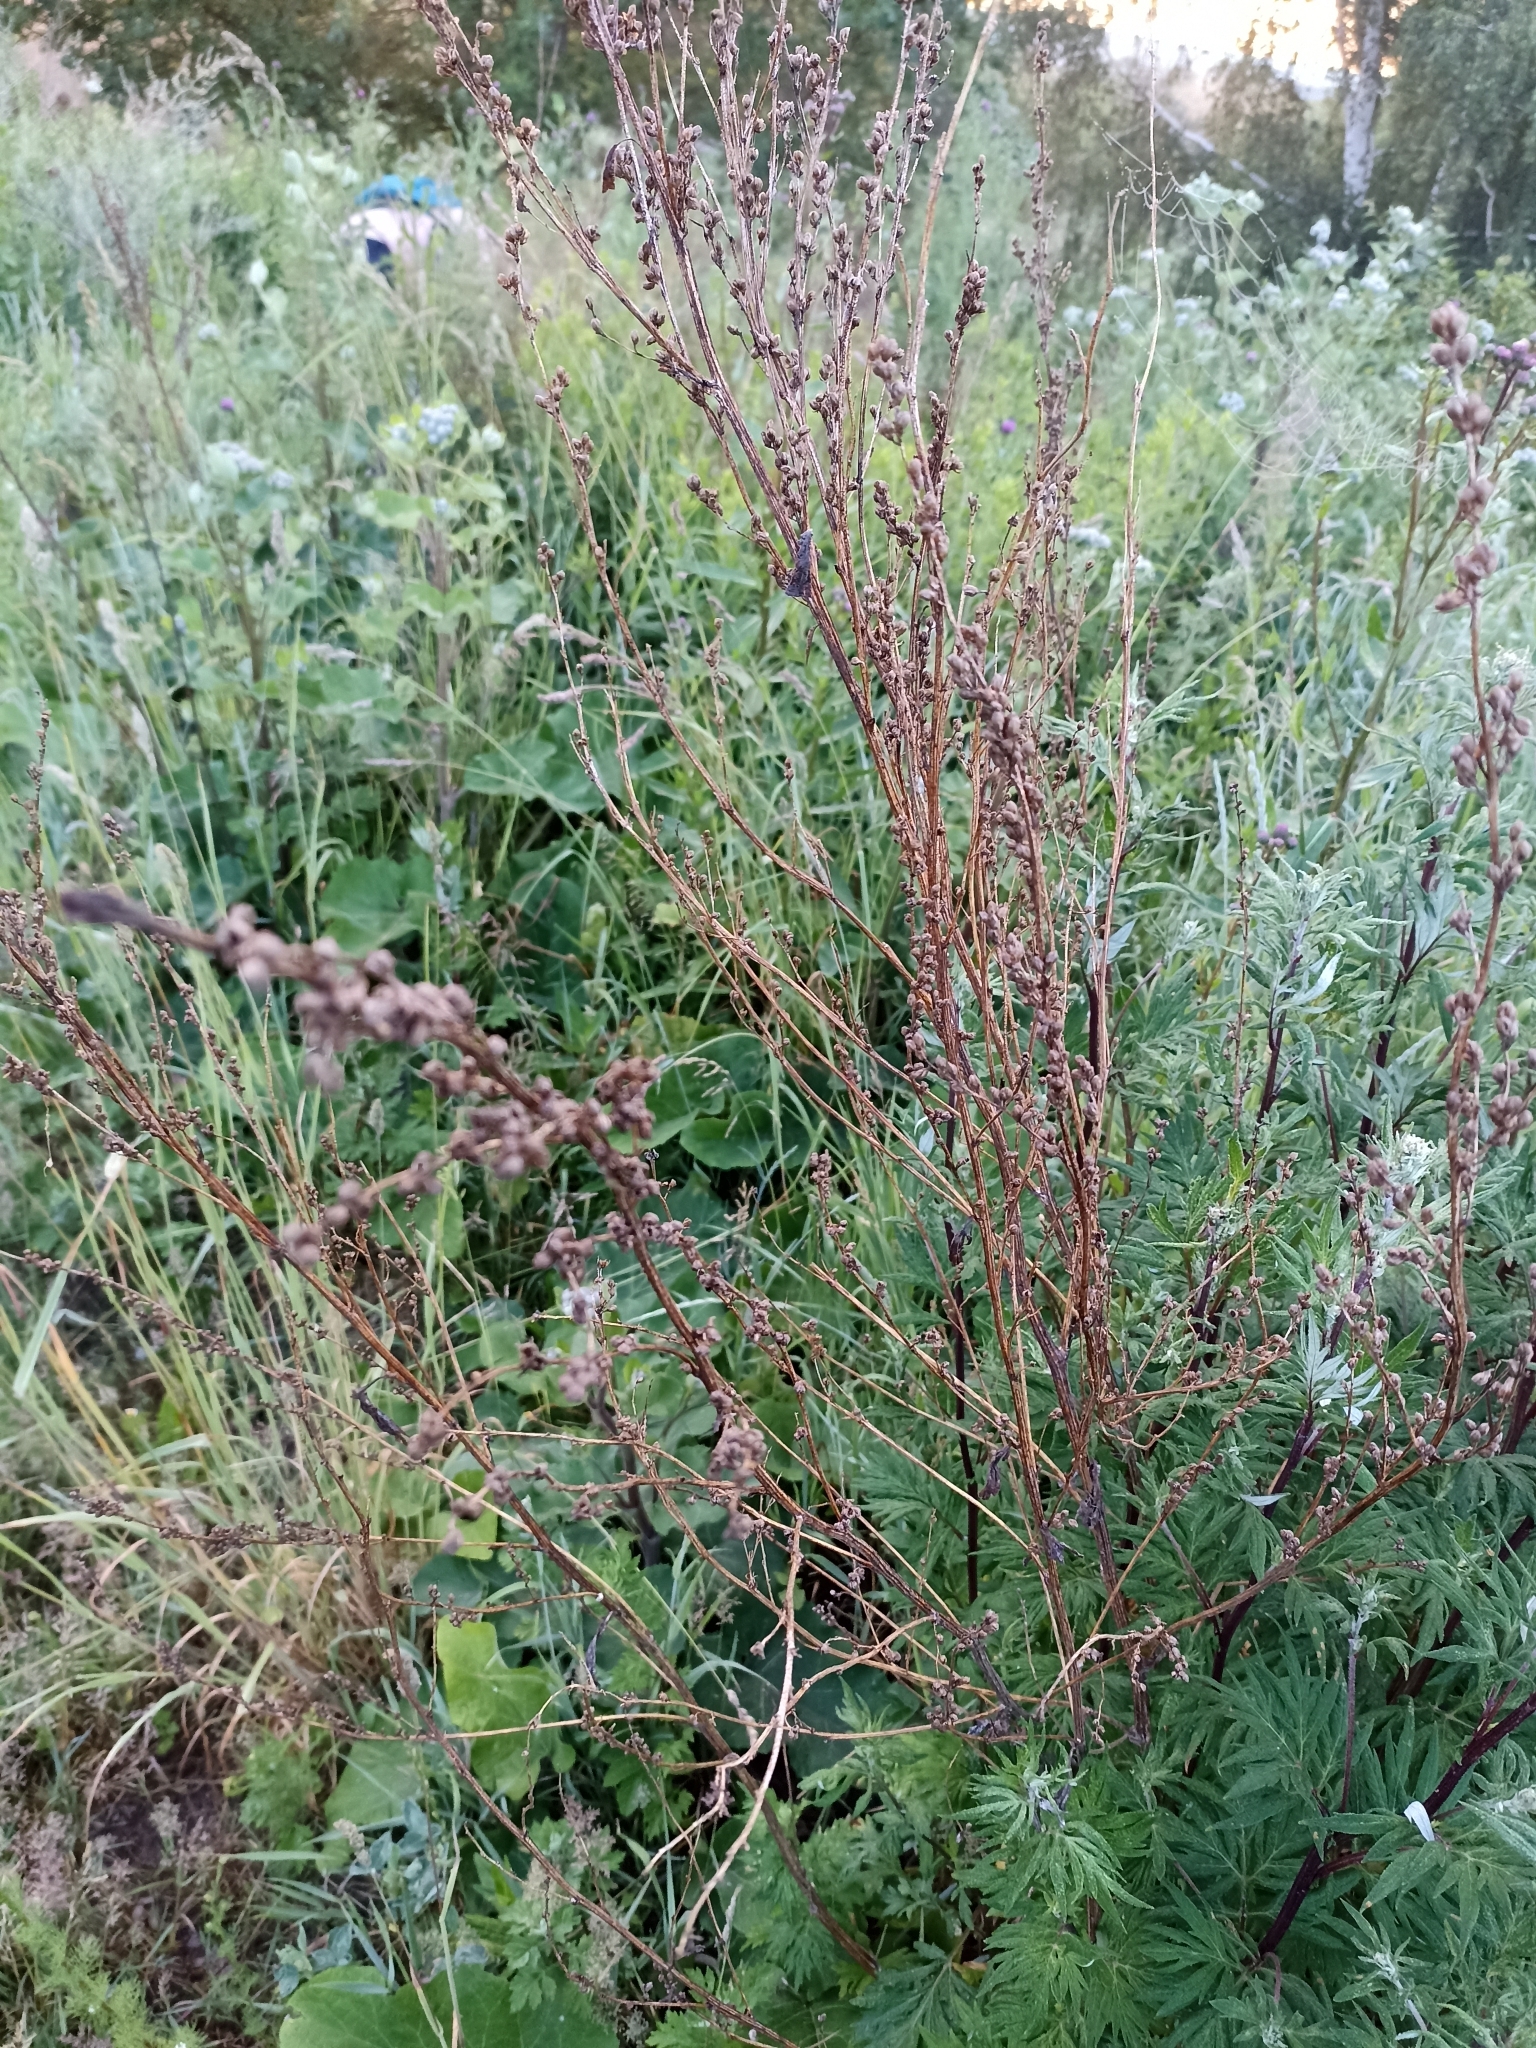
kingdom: Plantae
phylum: Tracheophyta
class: Magnoliopsida
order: Asterales
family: Asteraceae
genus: Artemisia
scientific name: Artemisia vulgaris
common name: Mugwort
